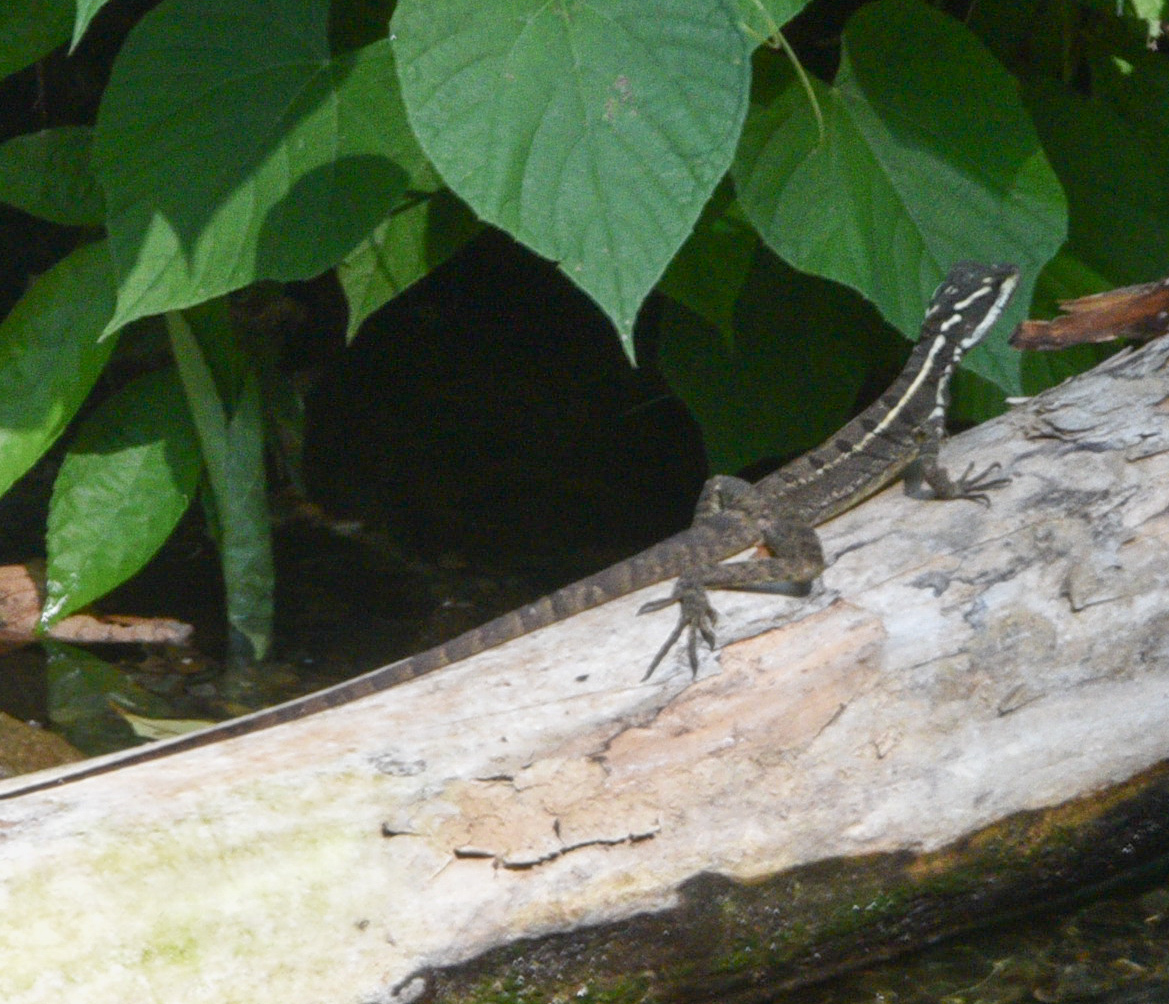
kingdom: Animalia
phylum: Chordata
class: Squamata
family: Corytophanidae
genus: Basiliscus
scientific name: Basiliscus basiliscus
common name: Common basilisk
